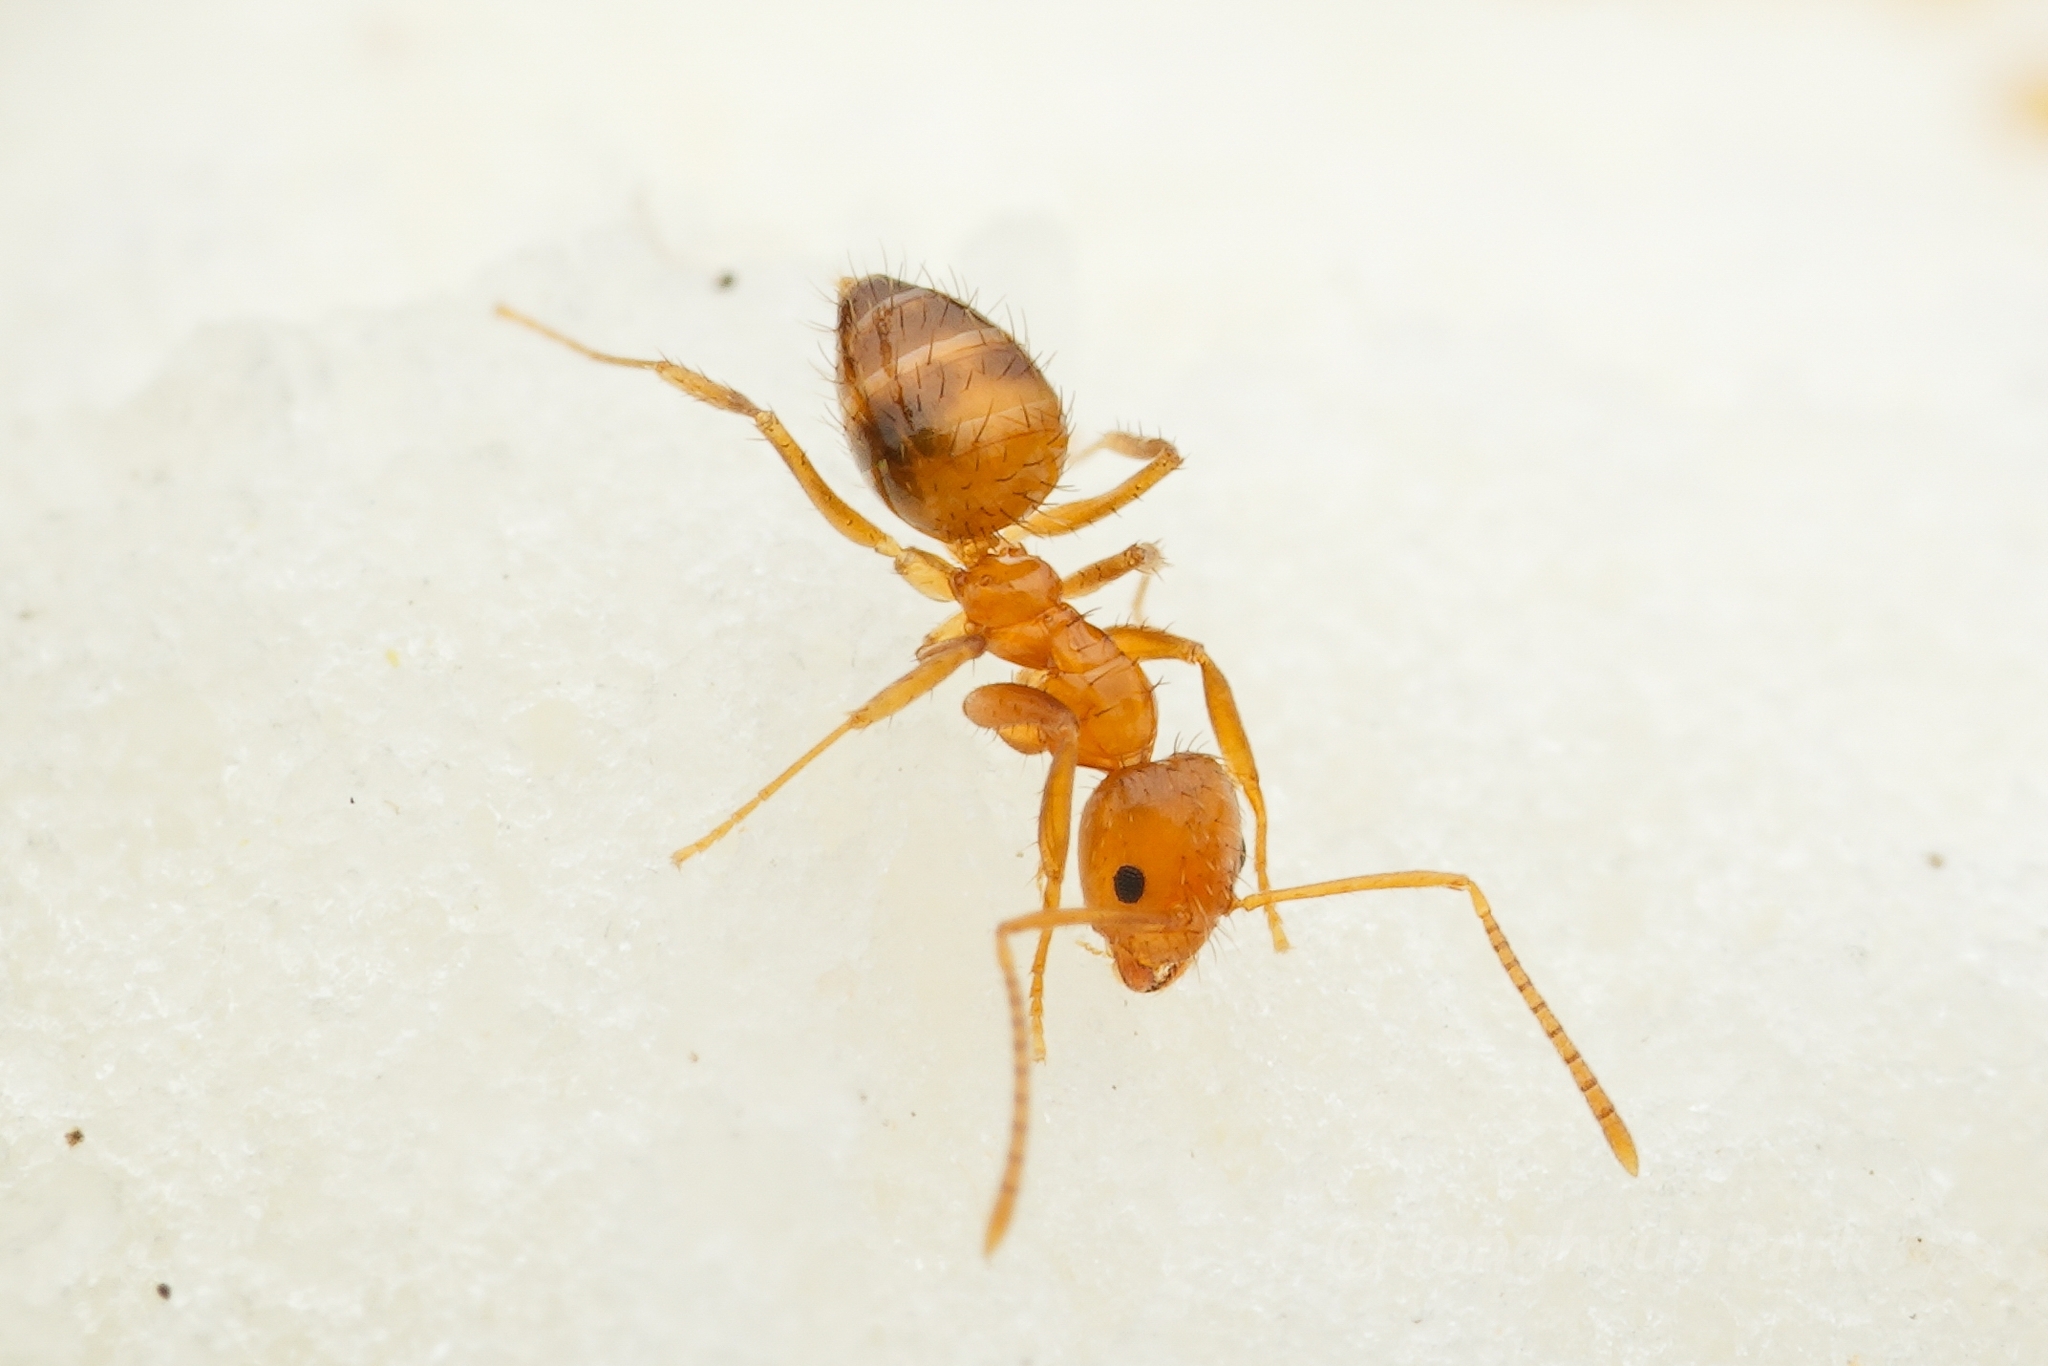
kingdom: Animalia
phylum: Arthropoda
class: Insecta
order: Hymenoptera
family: Formicidae
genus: Paratrechina
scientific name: Paratrechina flavipes
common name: Eastern asian formicine ant
